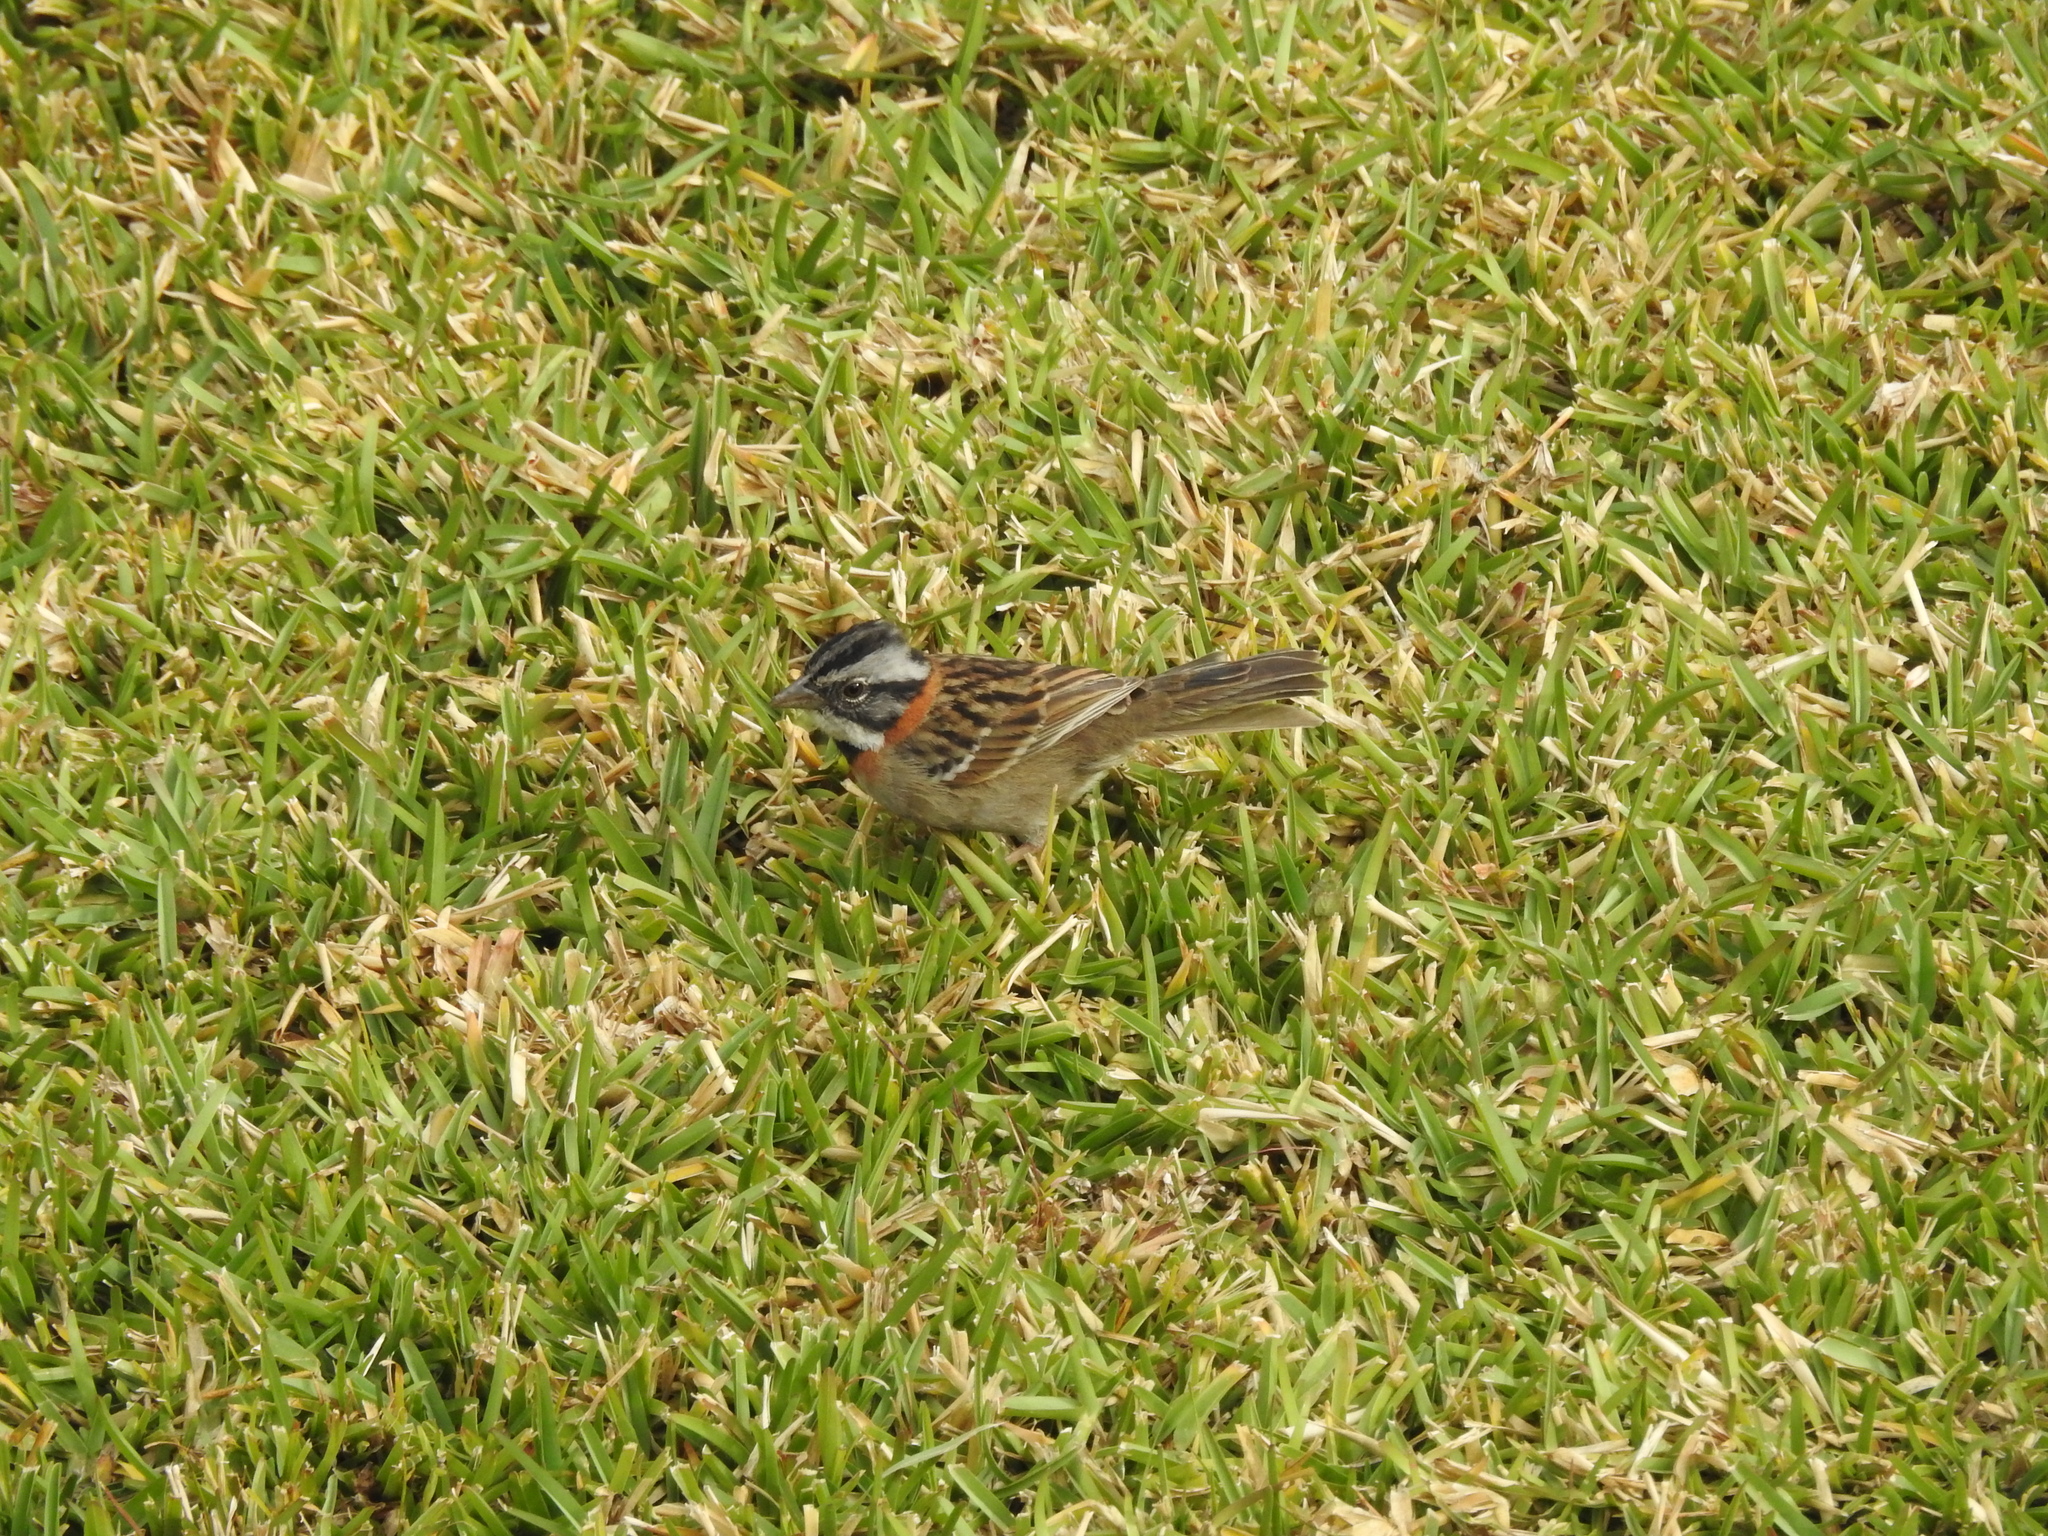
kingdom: Animalia
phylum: Chordata
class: Aves
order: Passeriformes
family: Passerellidae
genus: Zonotrichia
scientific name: Zonotrichia capensis
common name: Rufous-collared sparrow
